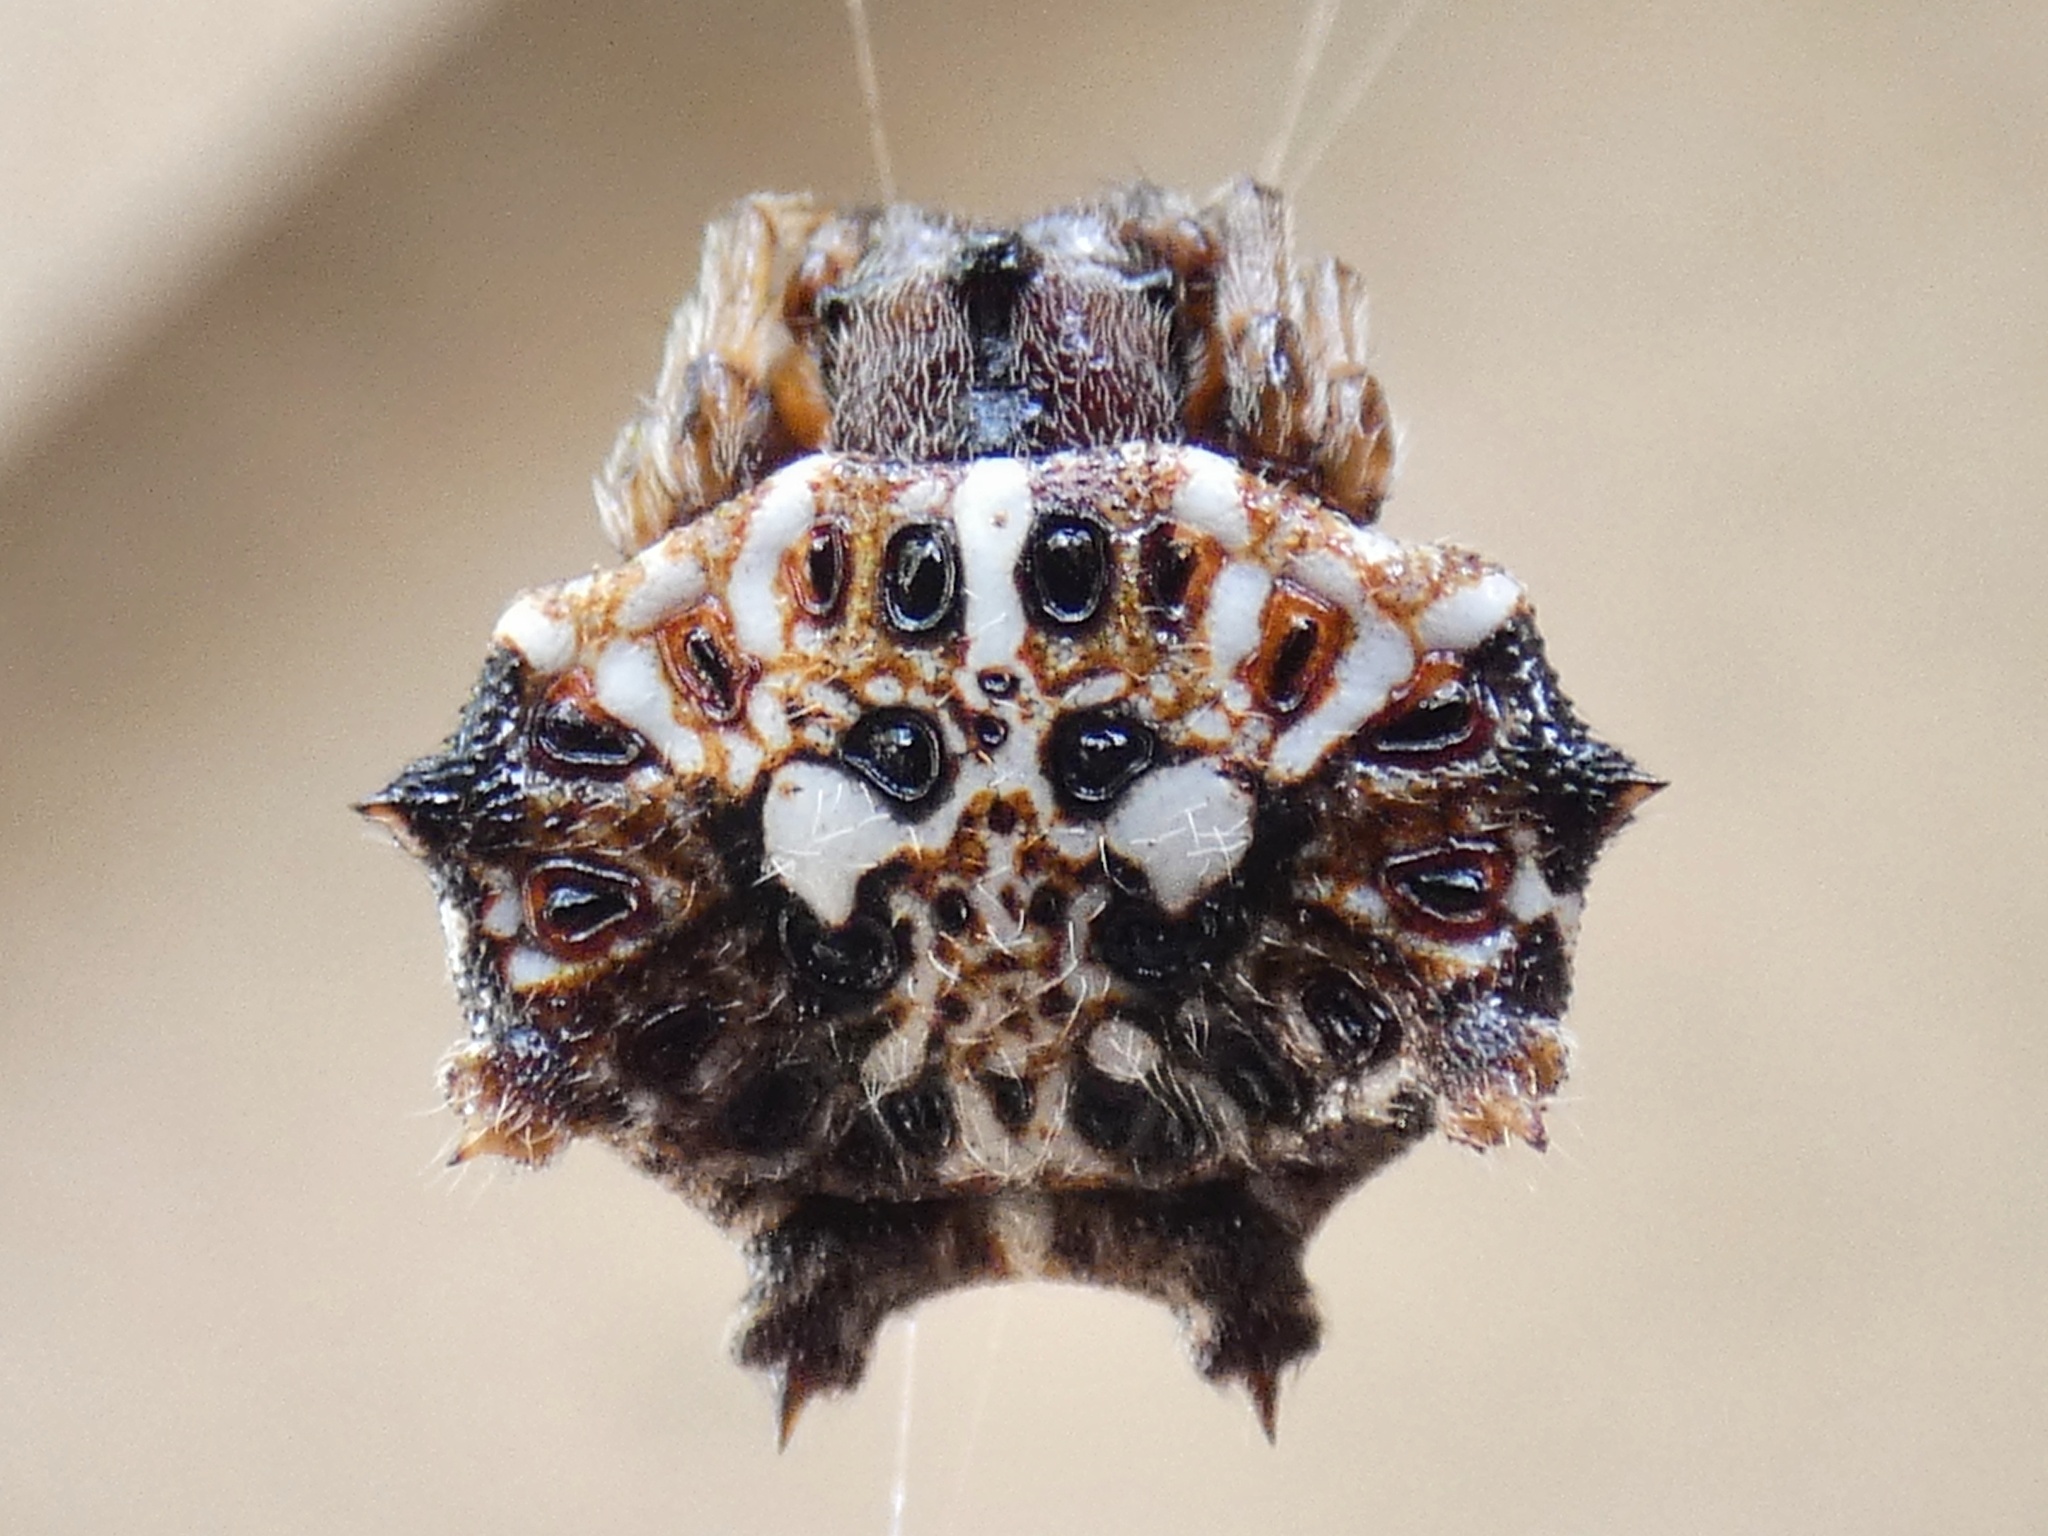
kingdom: Animalia
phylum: Arthropoda
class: Arachnida
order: Araneae
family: Araneidae
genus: Thelacantha
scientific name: Thelacantha brevispina
